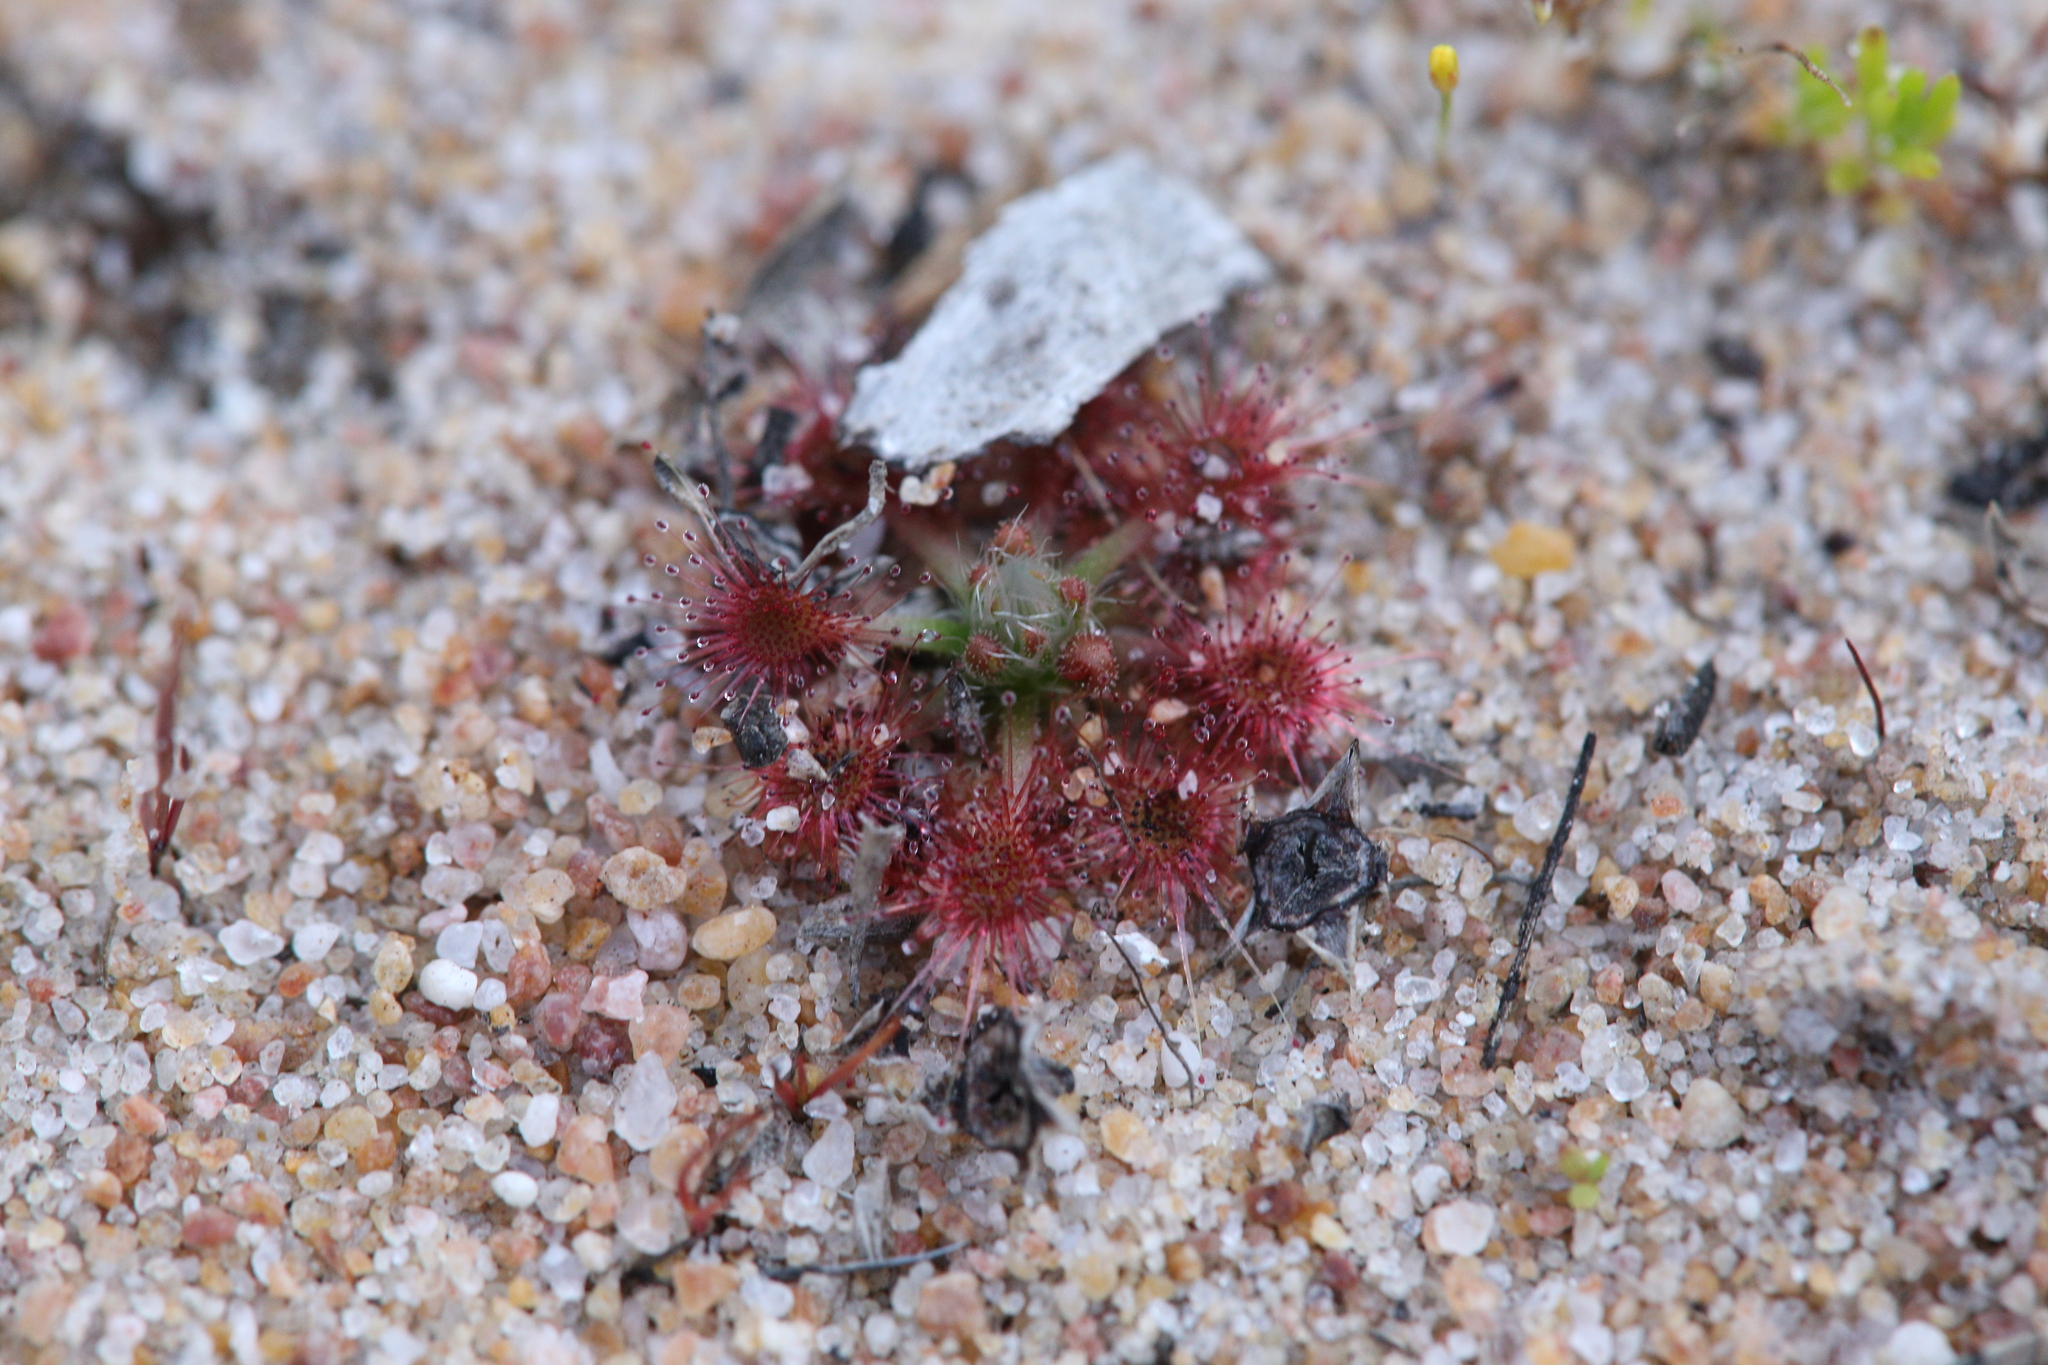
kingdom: Plantae
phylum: Tracheophyta
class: Magnoliopsida
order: Caryophyllales
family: Droseraceae
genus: Drosera
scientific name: Drosera nitidula
